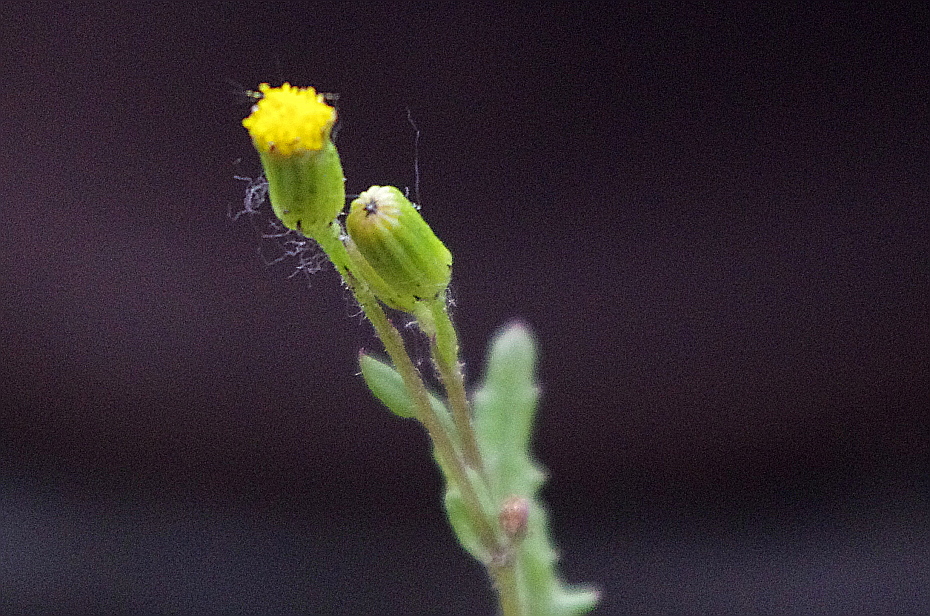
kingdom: Plantae
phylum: Tracheophyta
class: Magnoliopsida
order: Asterales
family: Asteraceae
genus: Senecio
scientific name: Senecio vulgaris
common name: Old-man-in-the-spring
